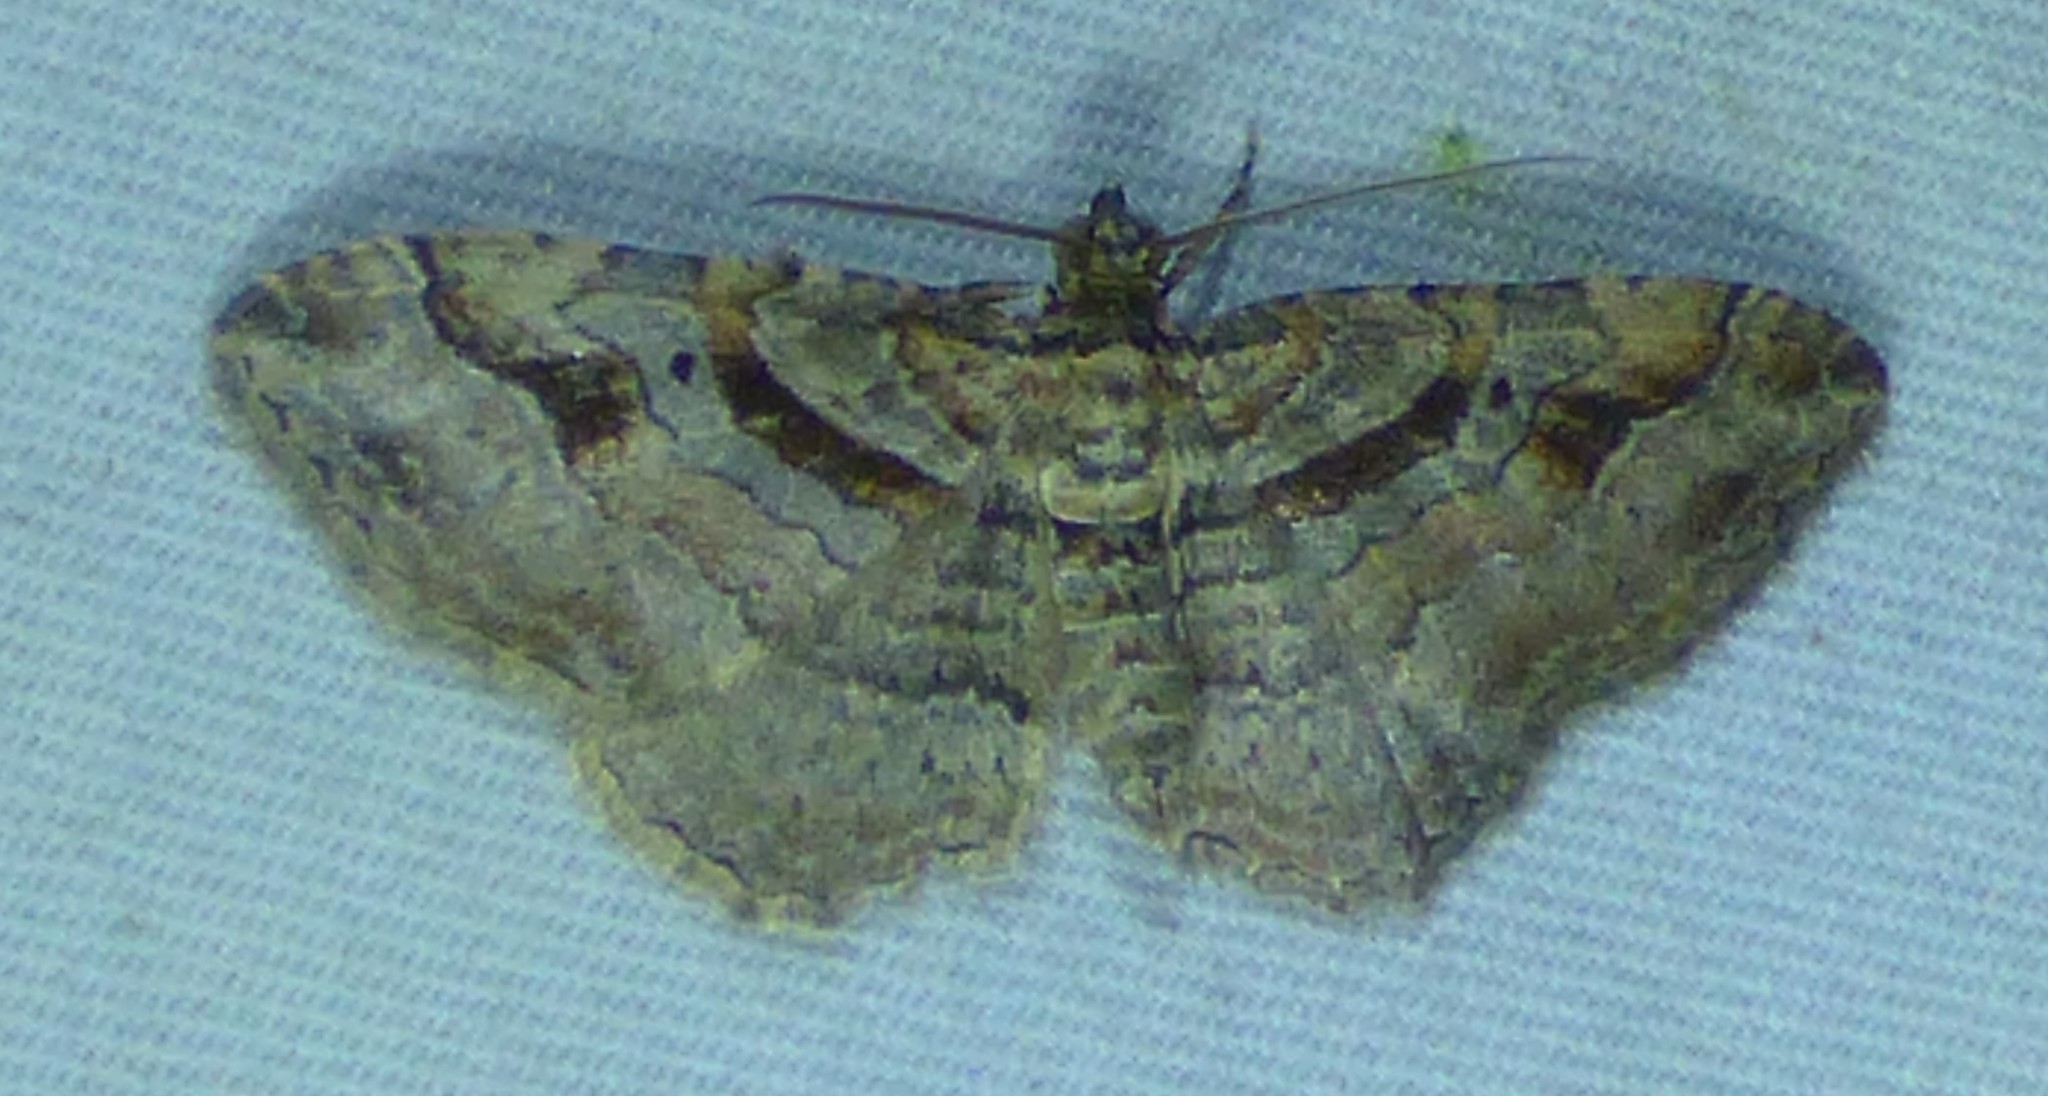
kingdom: Animalia
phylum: Arthropoda
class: Insecta
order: Lepidoptera
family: Geometridae
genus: Costaconvexa
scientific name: Costaconvexa centrostrigaria
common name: Bent-line carpet
